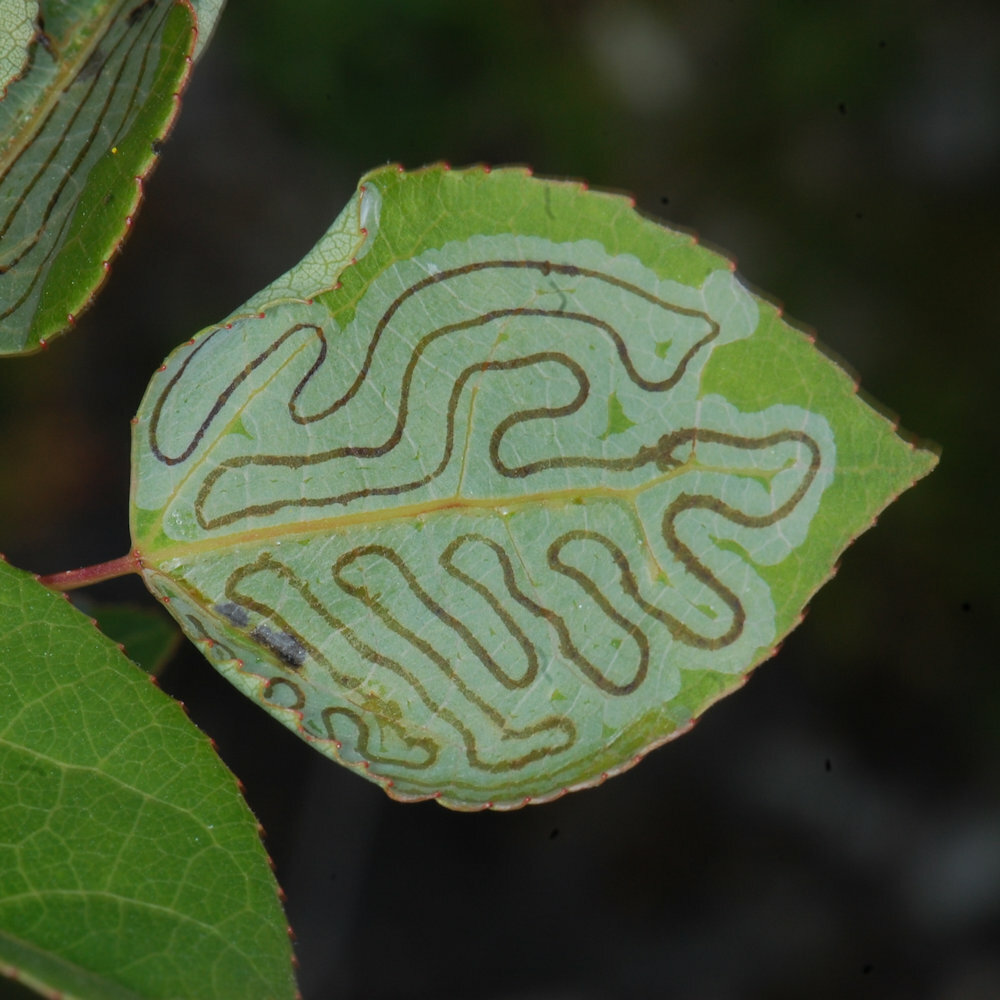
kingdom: Animalia
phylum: Arthropoda
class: Insecta
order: Lepidoptera
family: Gracillariidae
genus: Phyllocnistis
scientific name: Phyllocnistis populiella
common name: Aspen serpentine leafminer moth
